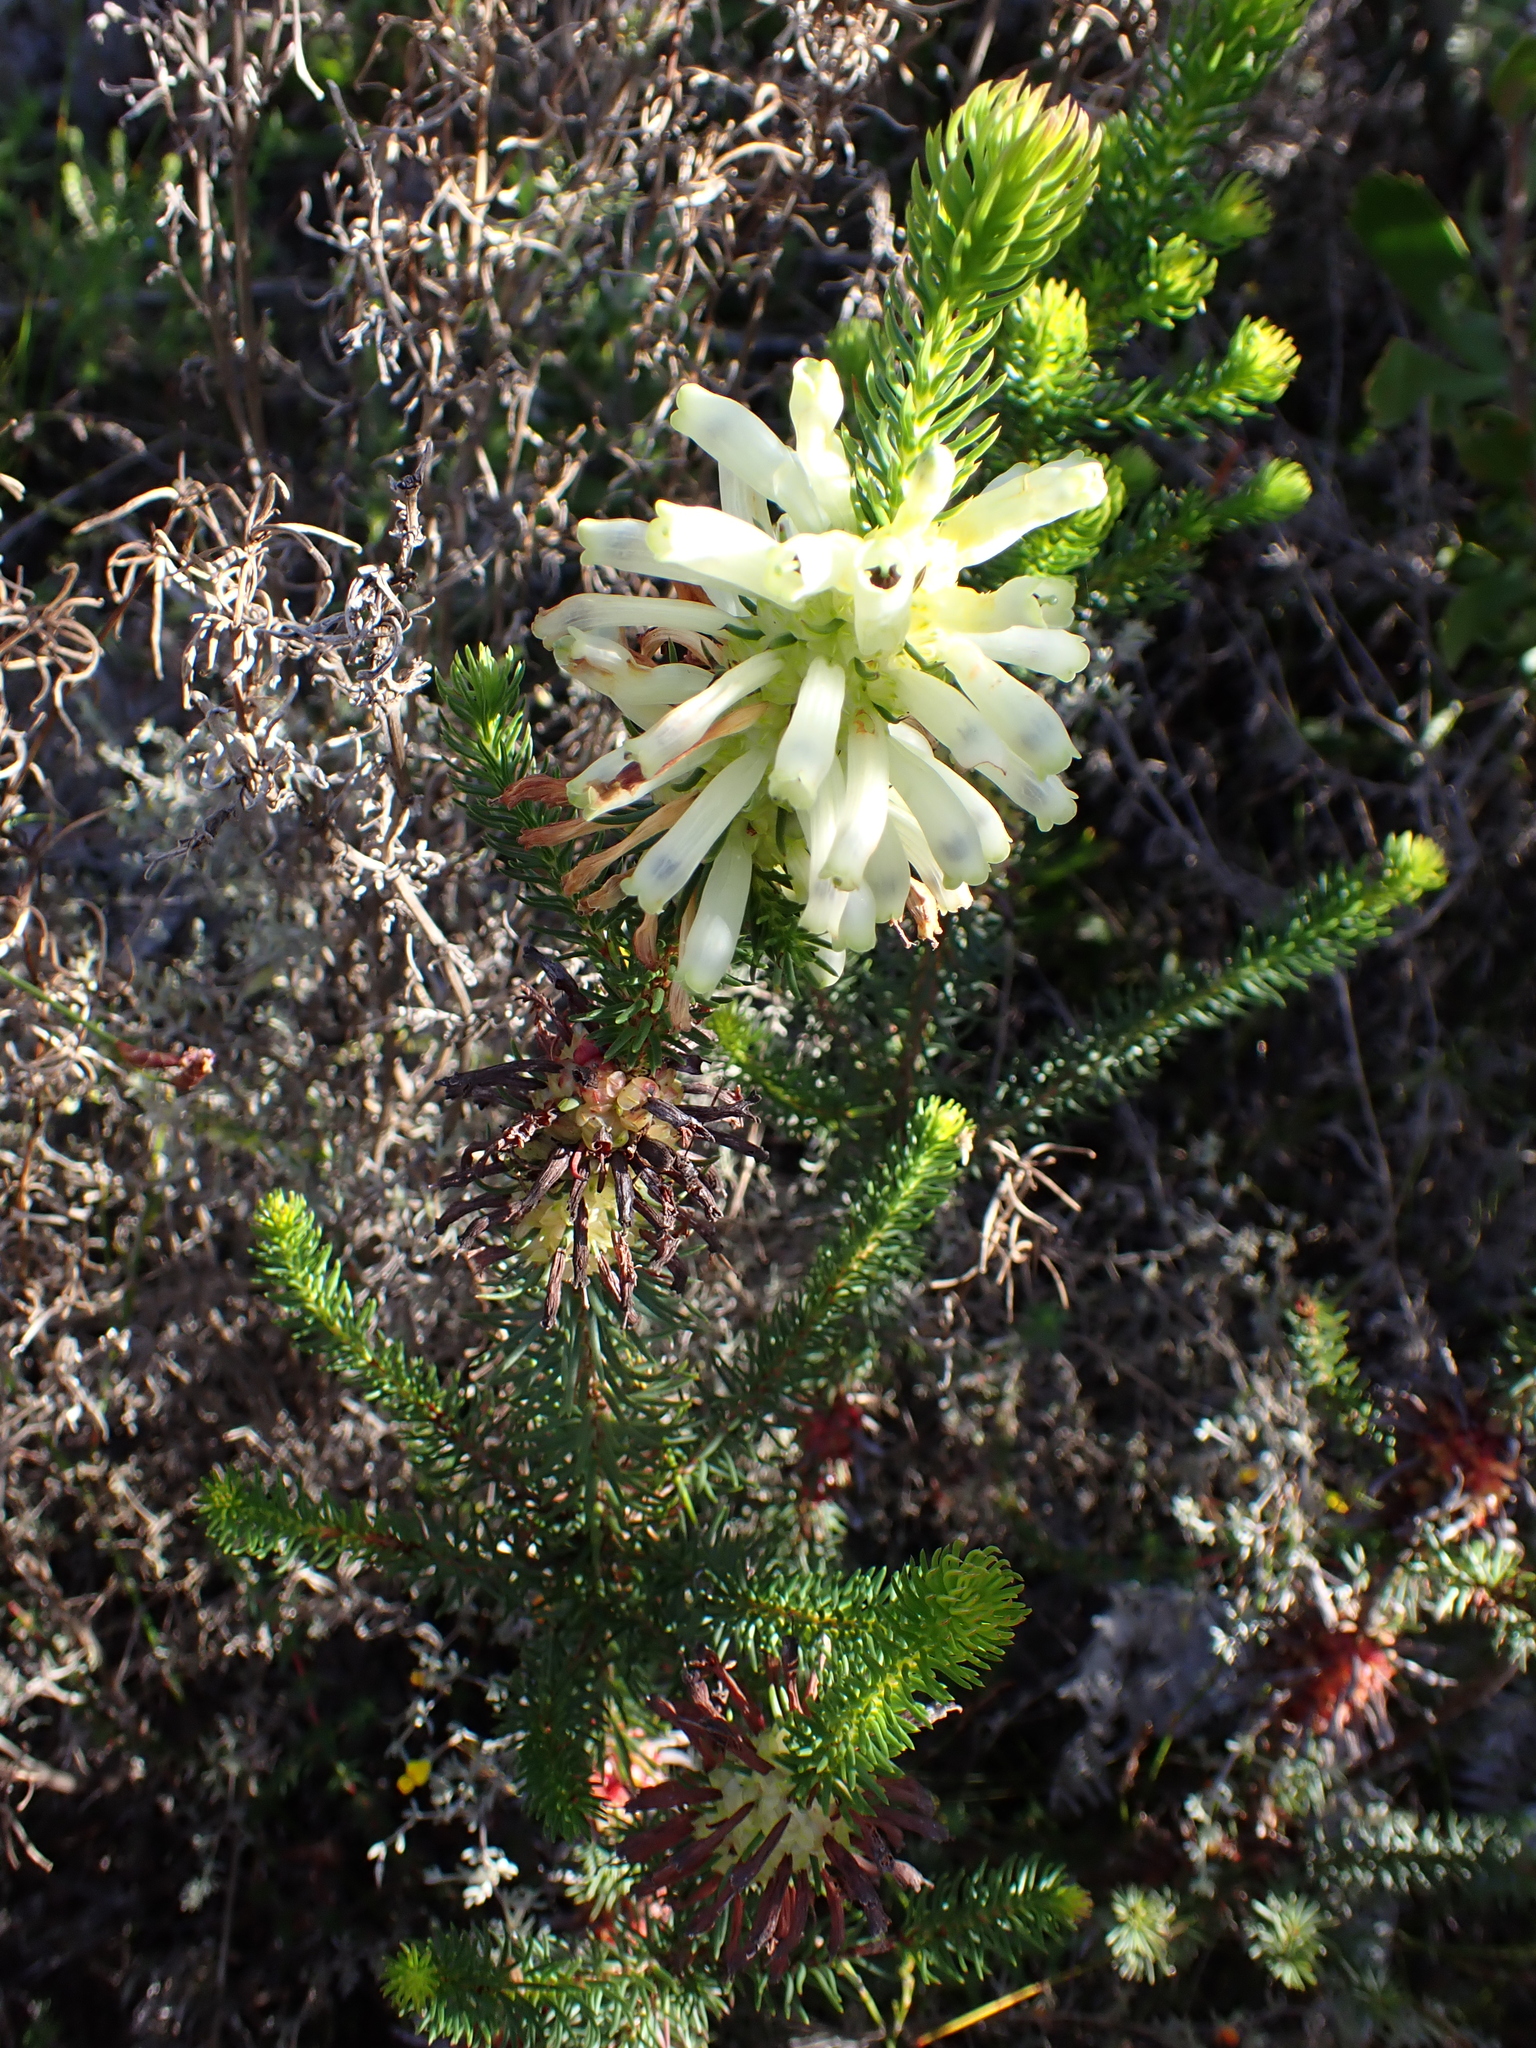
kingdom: Plantae
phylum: Tracheophyta
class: Magnoliopsida
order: Ericales
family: Ericaceae
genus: Erica
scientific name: Erica sessiliflora
